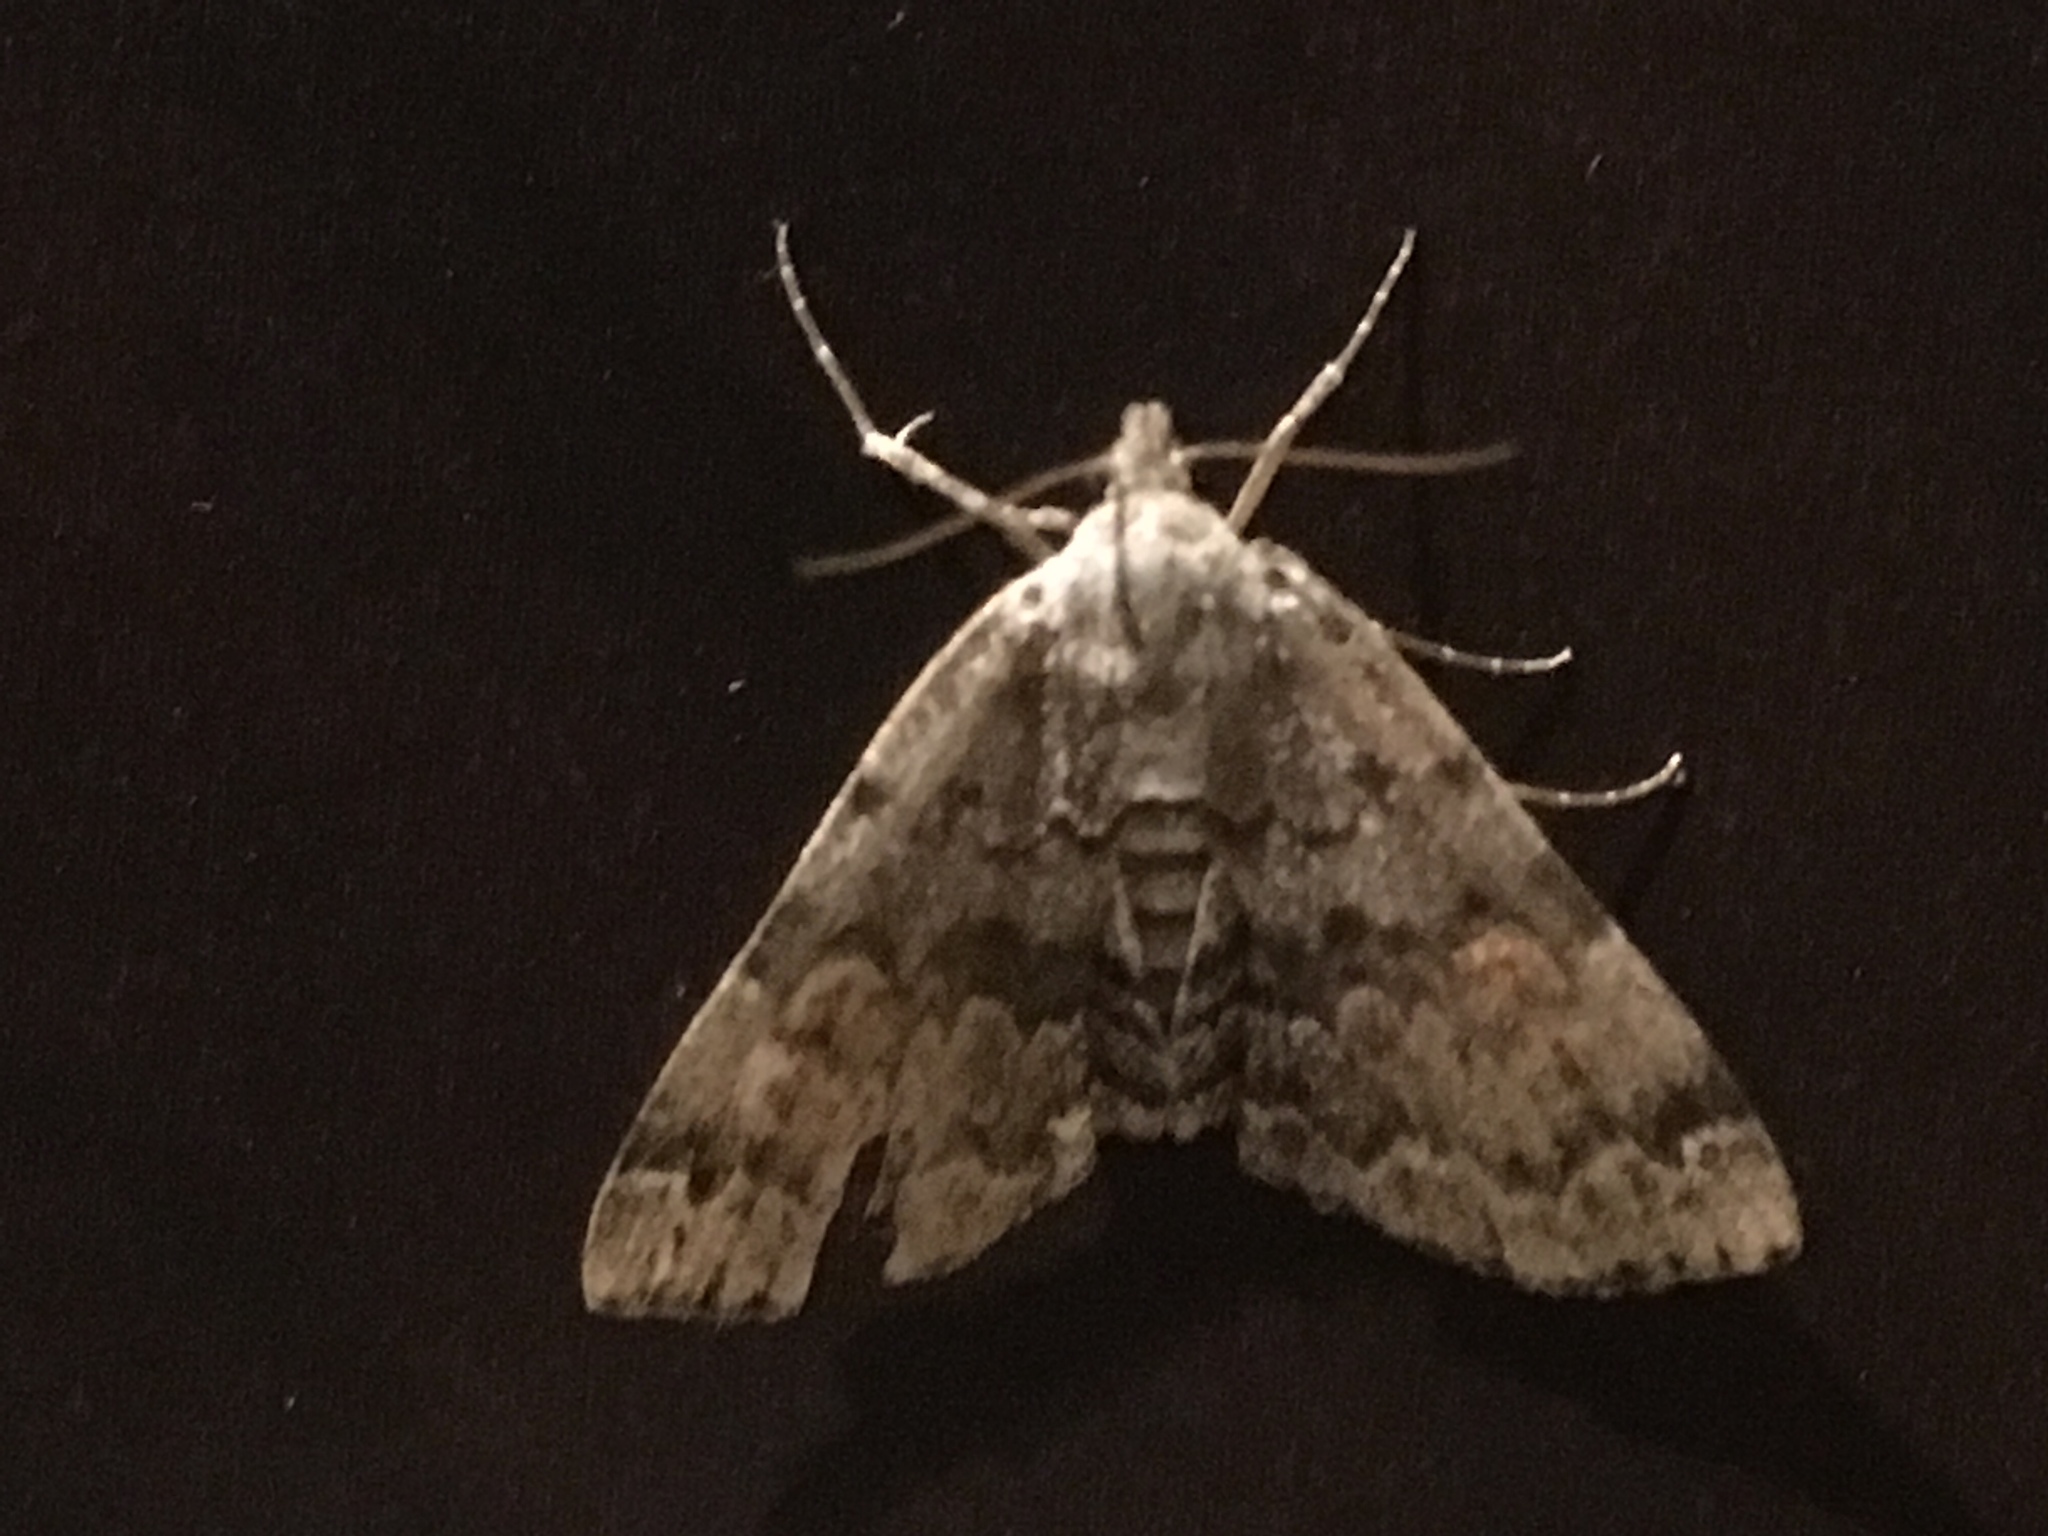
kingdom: Animalia
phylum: Arthropoda
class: Insecta
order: Lepidoptera
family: Erebidae
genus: Idia
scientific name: Idia americalis
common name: American idia moth
